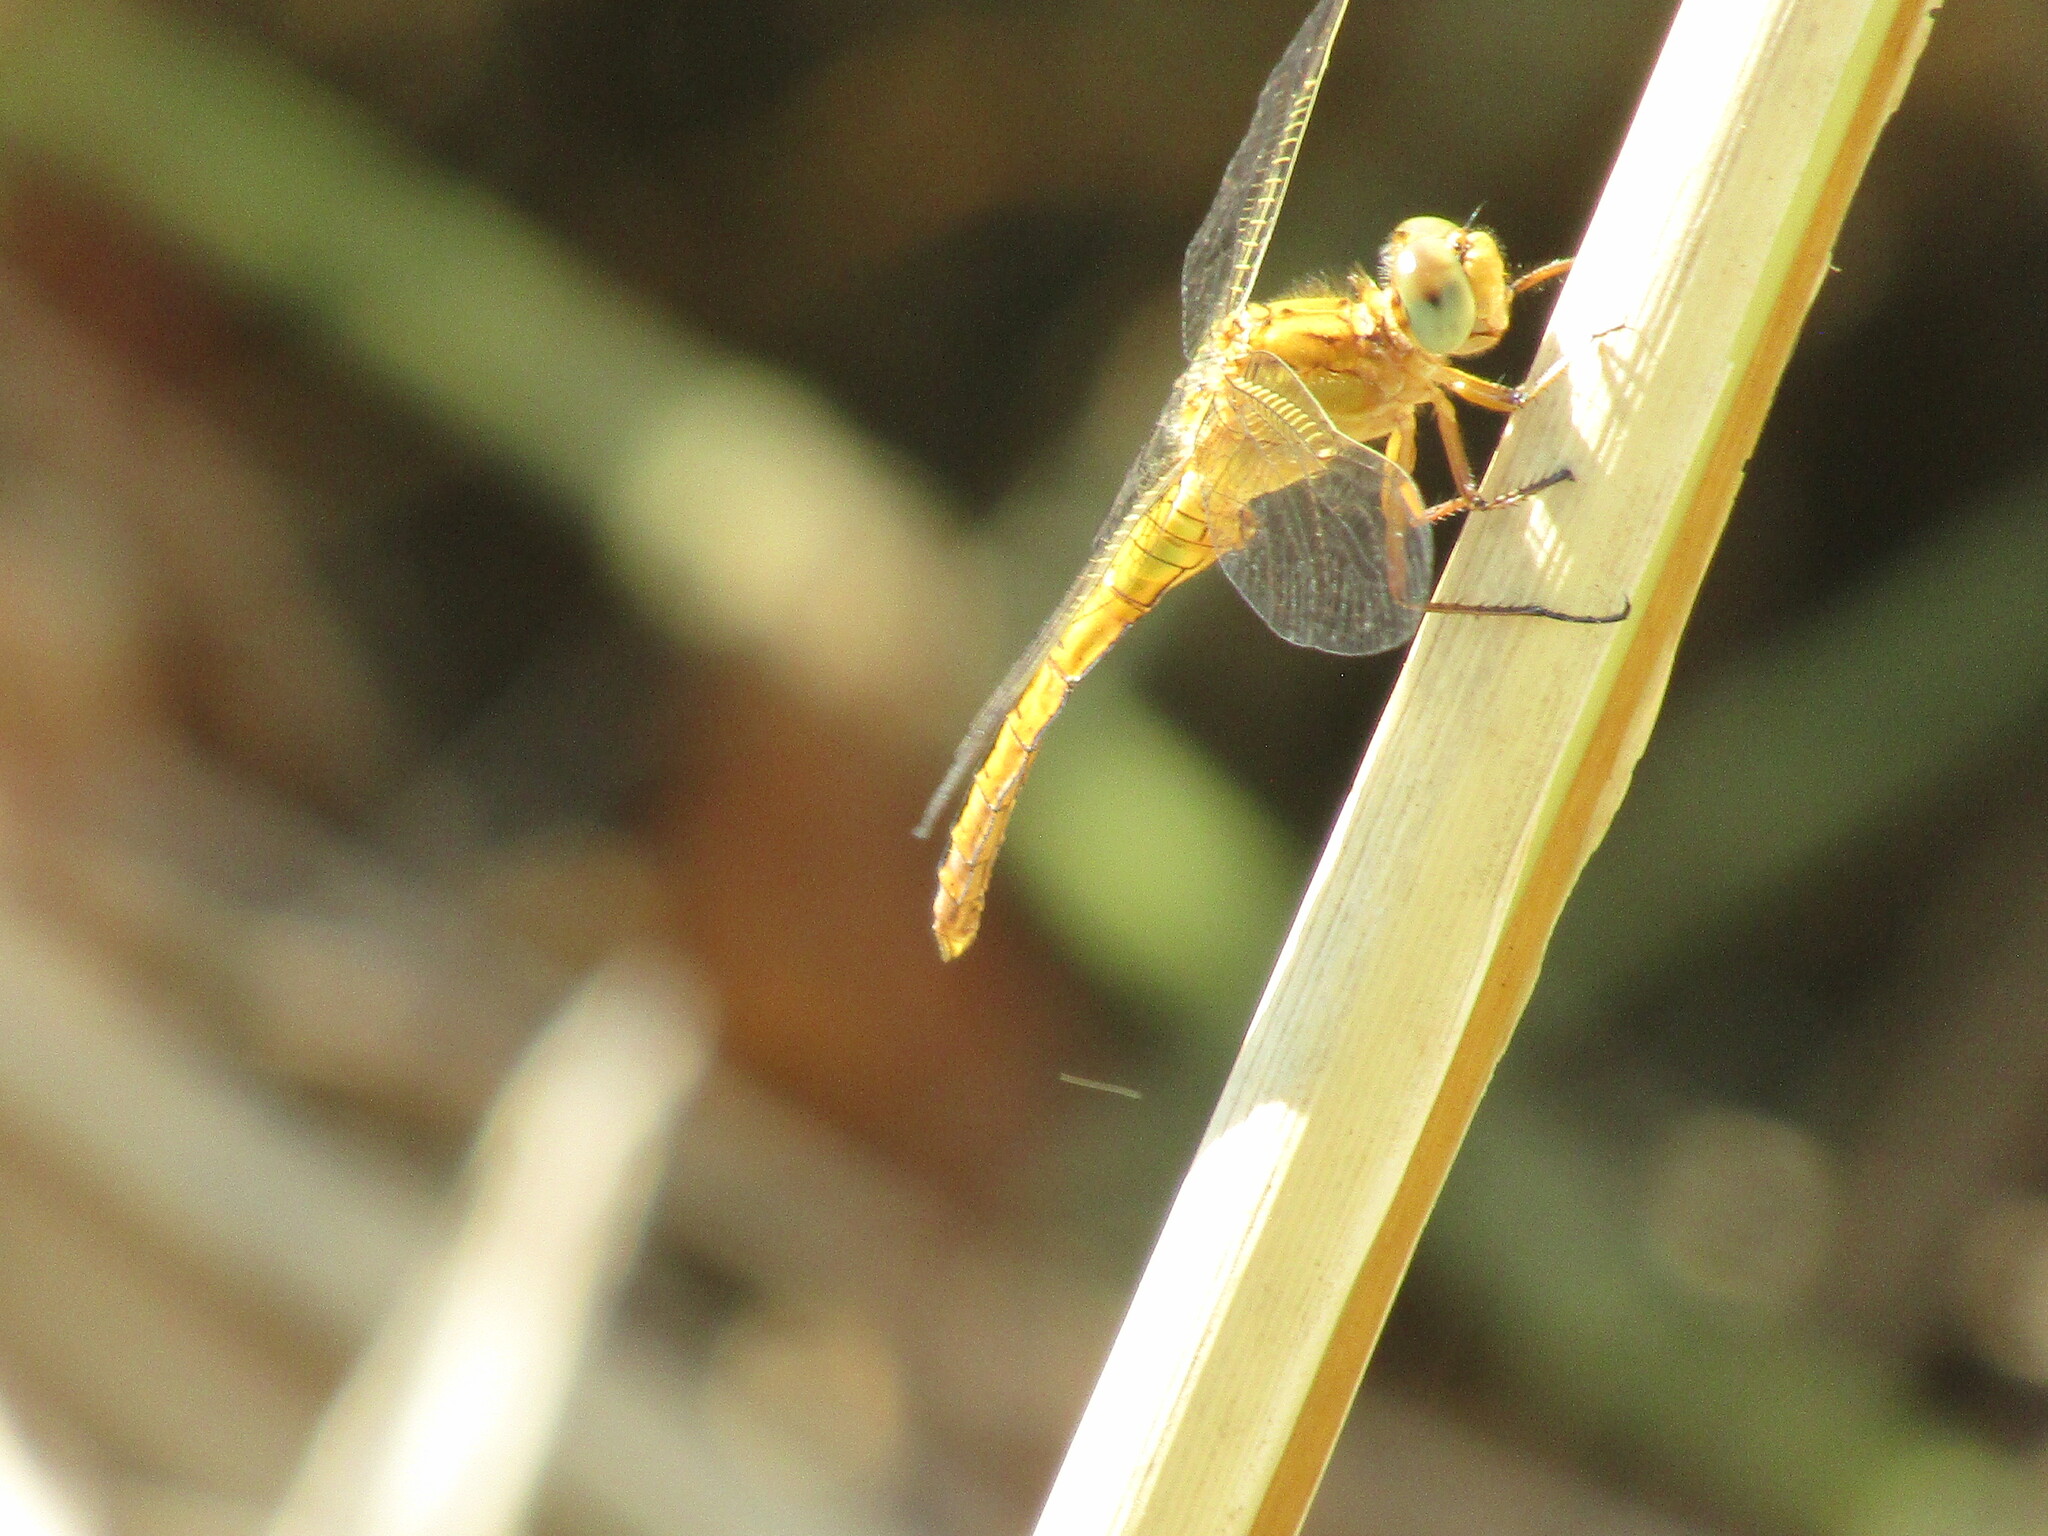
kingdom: Animalia
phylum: Arthropoda
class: Insecta
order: Odonata
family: Libellulidae
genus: Orthetrum
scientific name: Orthetrum coerulescens
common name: Keeled skimmer
